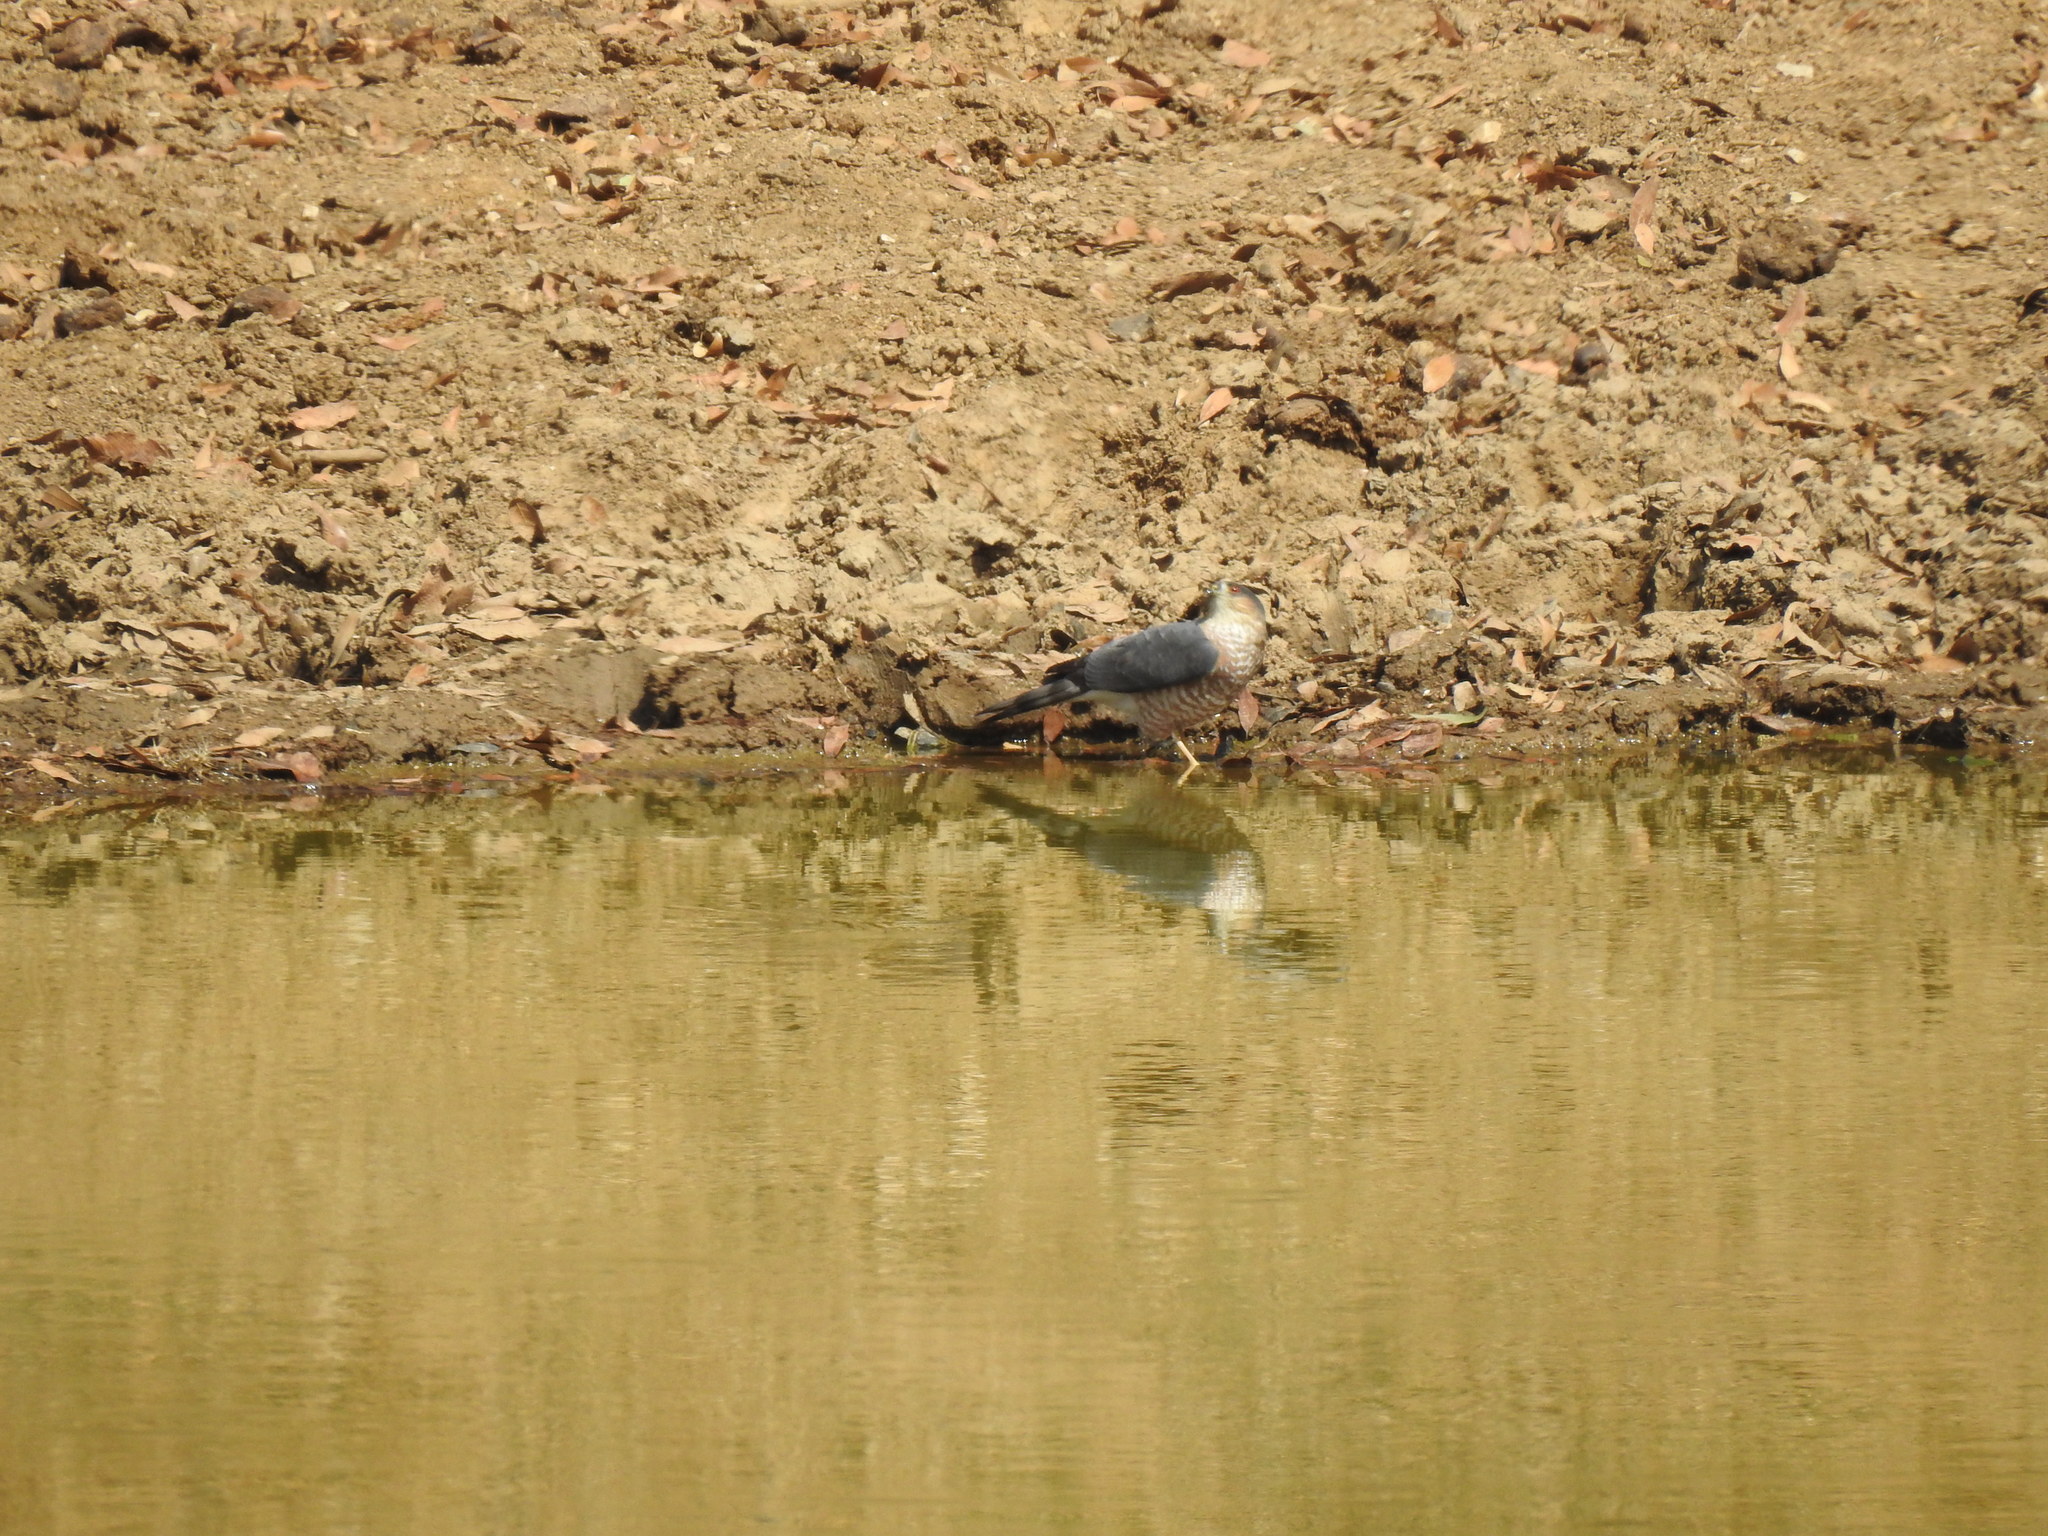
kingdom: Animalia
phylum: Chordata
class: Aves
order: Accipitriformes
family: Accipitridae
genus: Accipiter
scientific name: Accipiter cooperii
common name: Cooper's hawk
